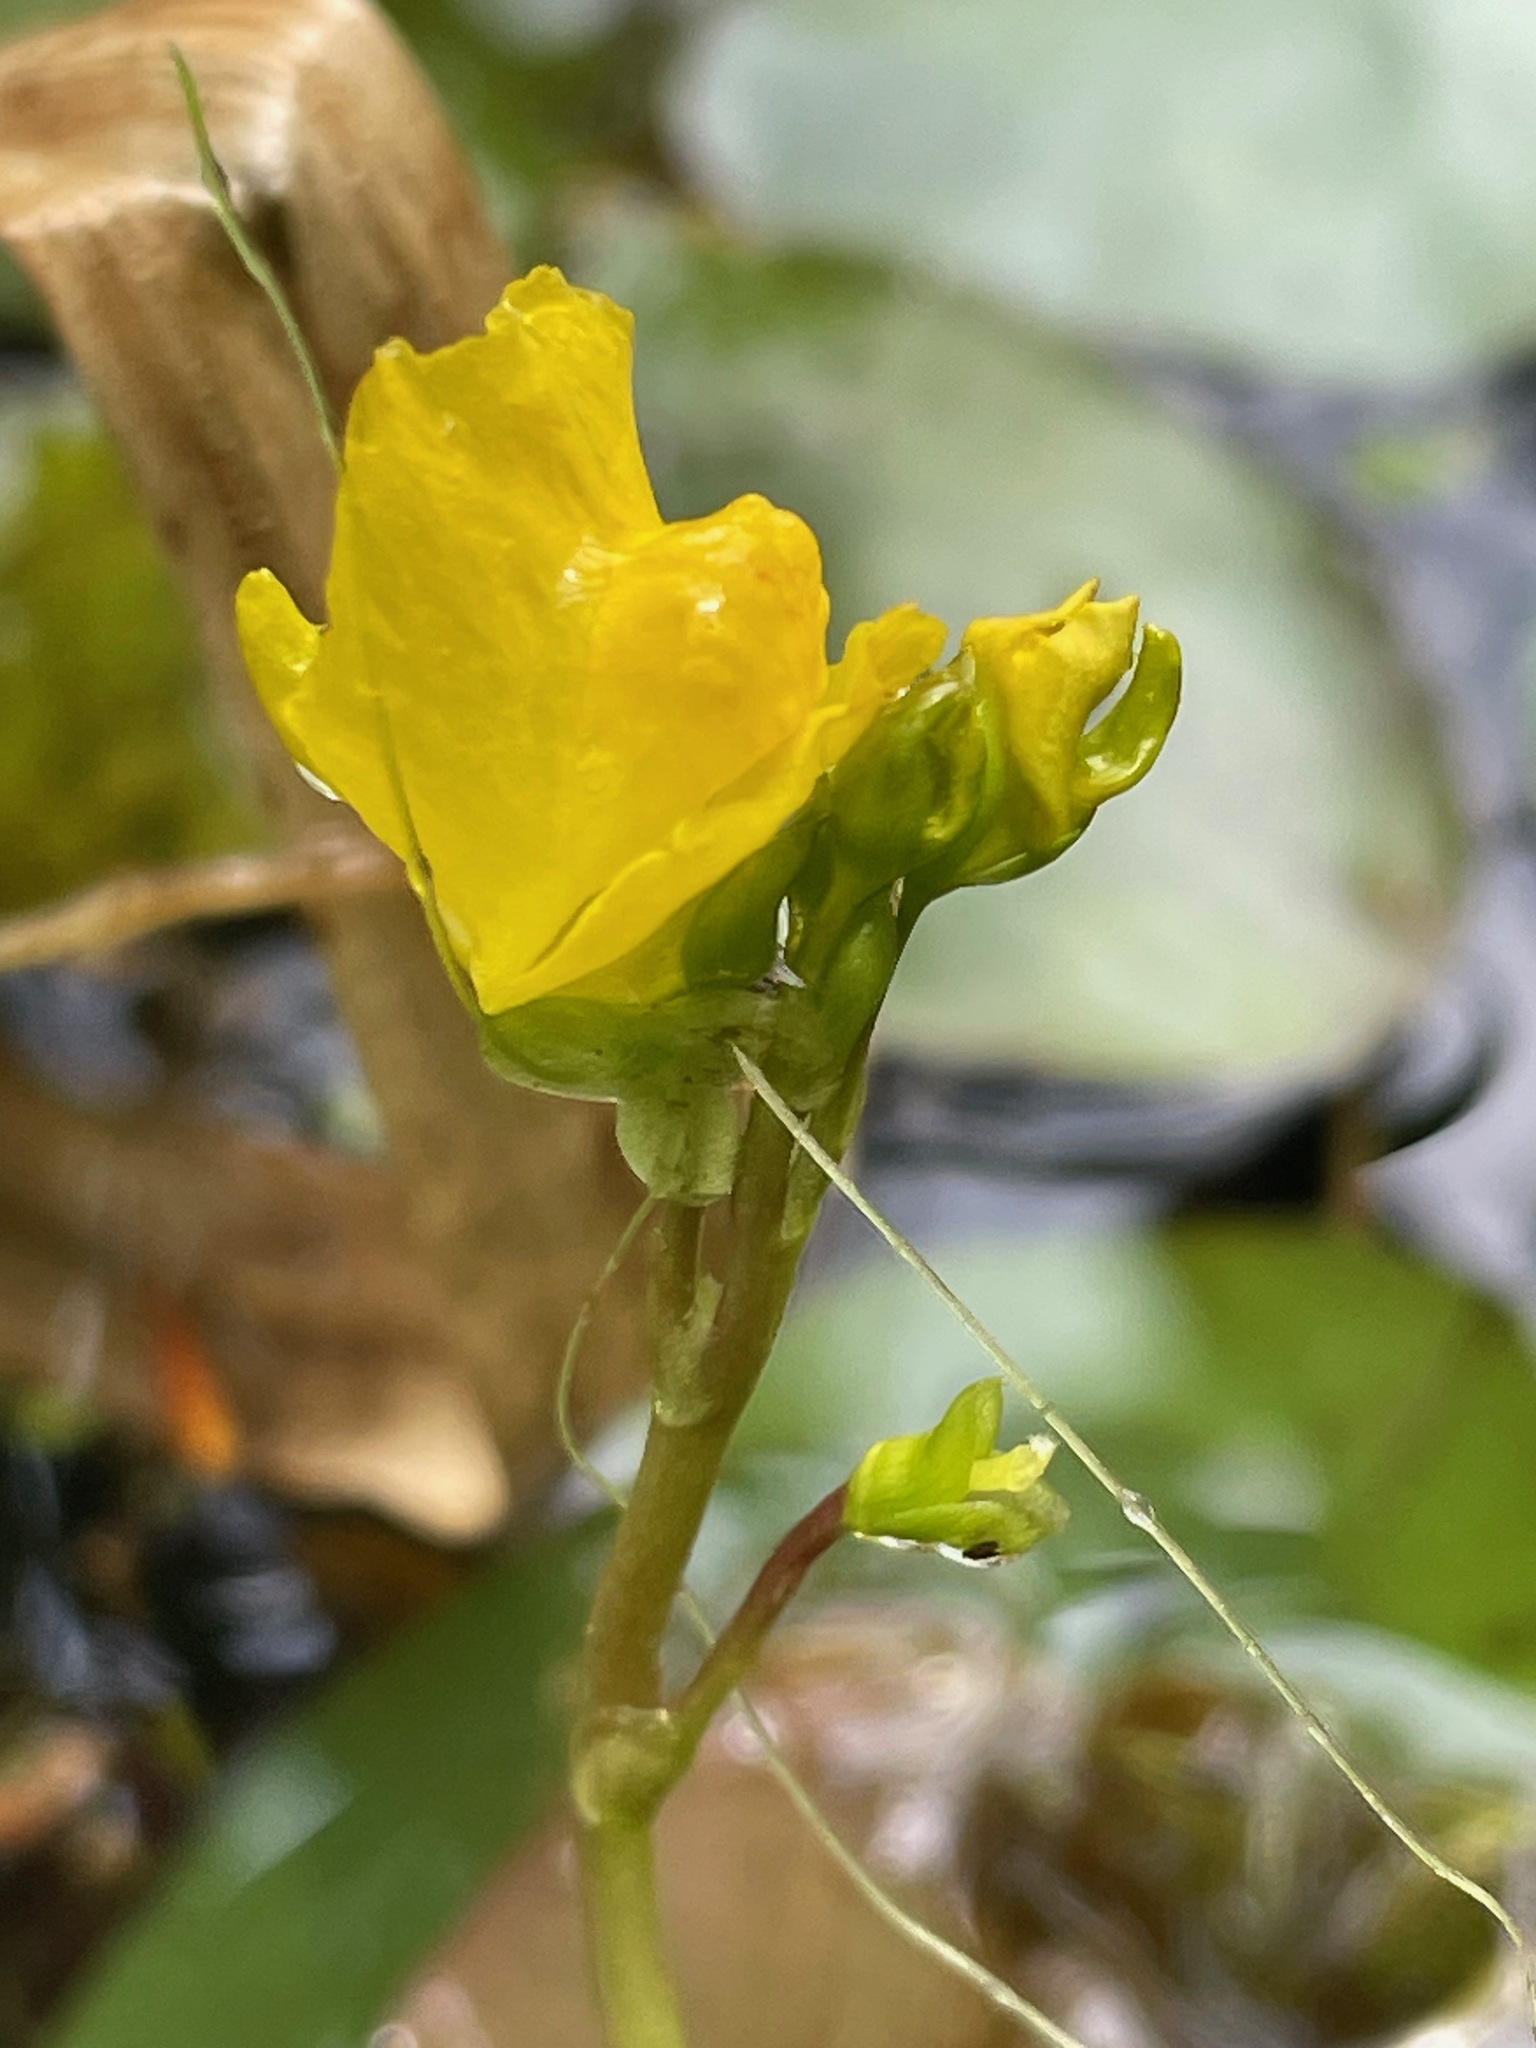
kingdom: Plantae
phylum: Tracheophyta
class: Magnoliopsida
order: Lamiales
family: Lentibulariaceae
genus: Utricularia
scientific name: Utricularia macrorhiza
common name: Common bladderwort
